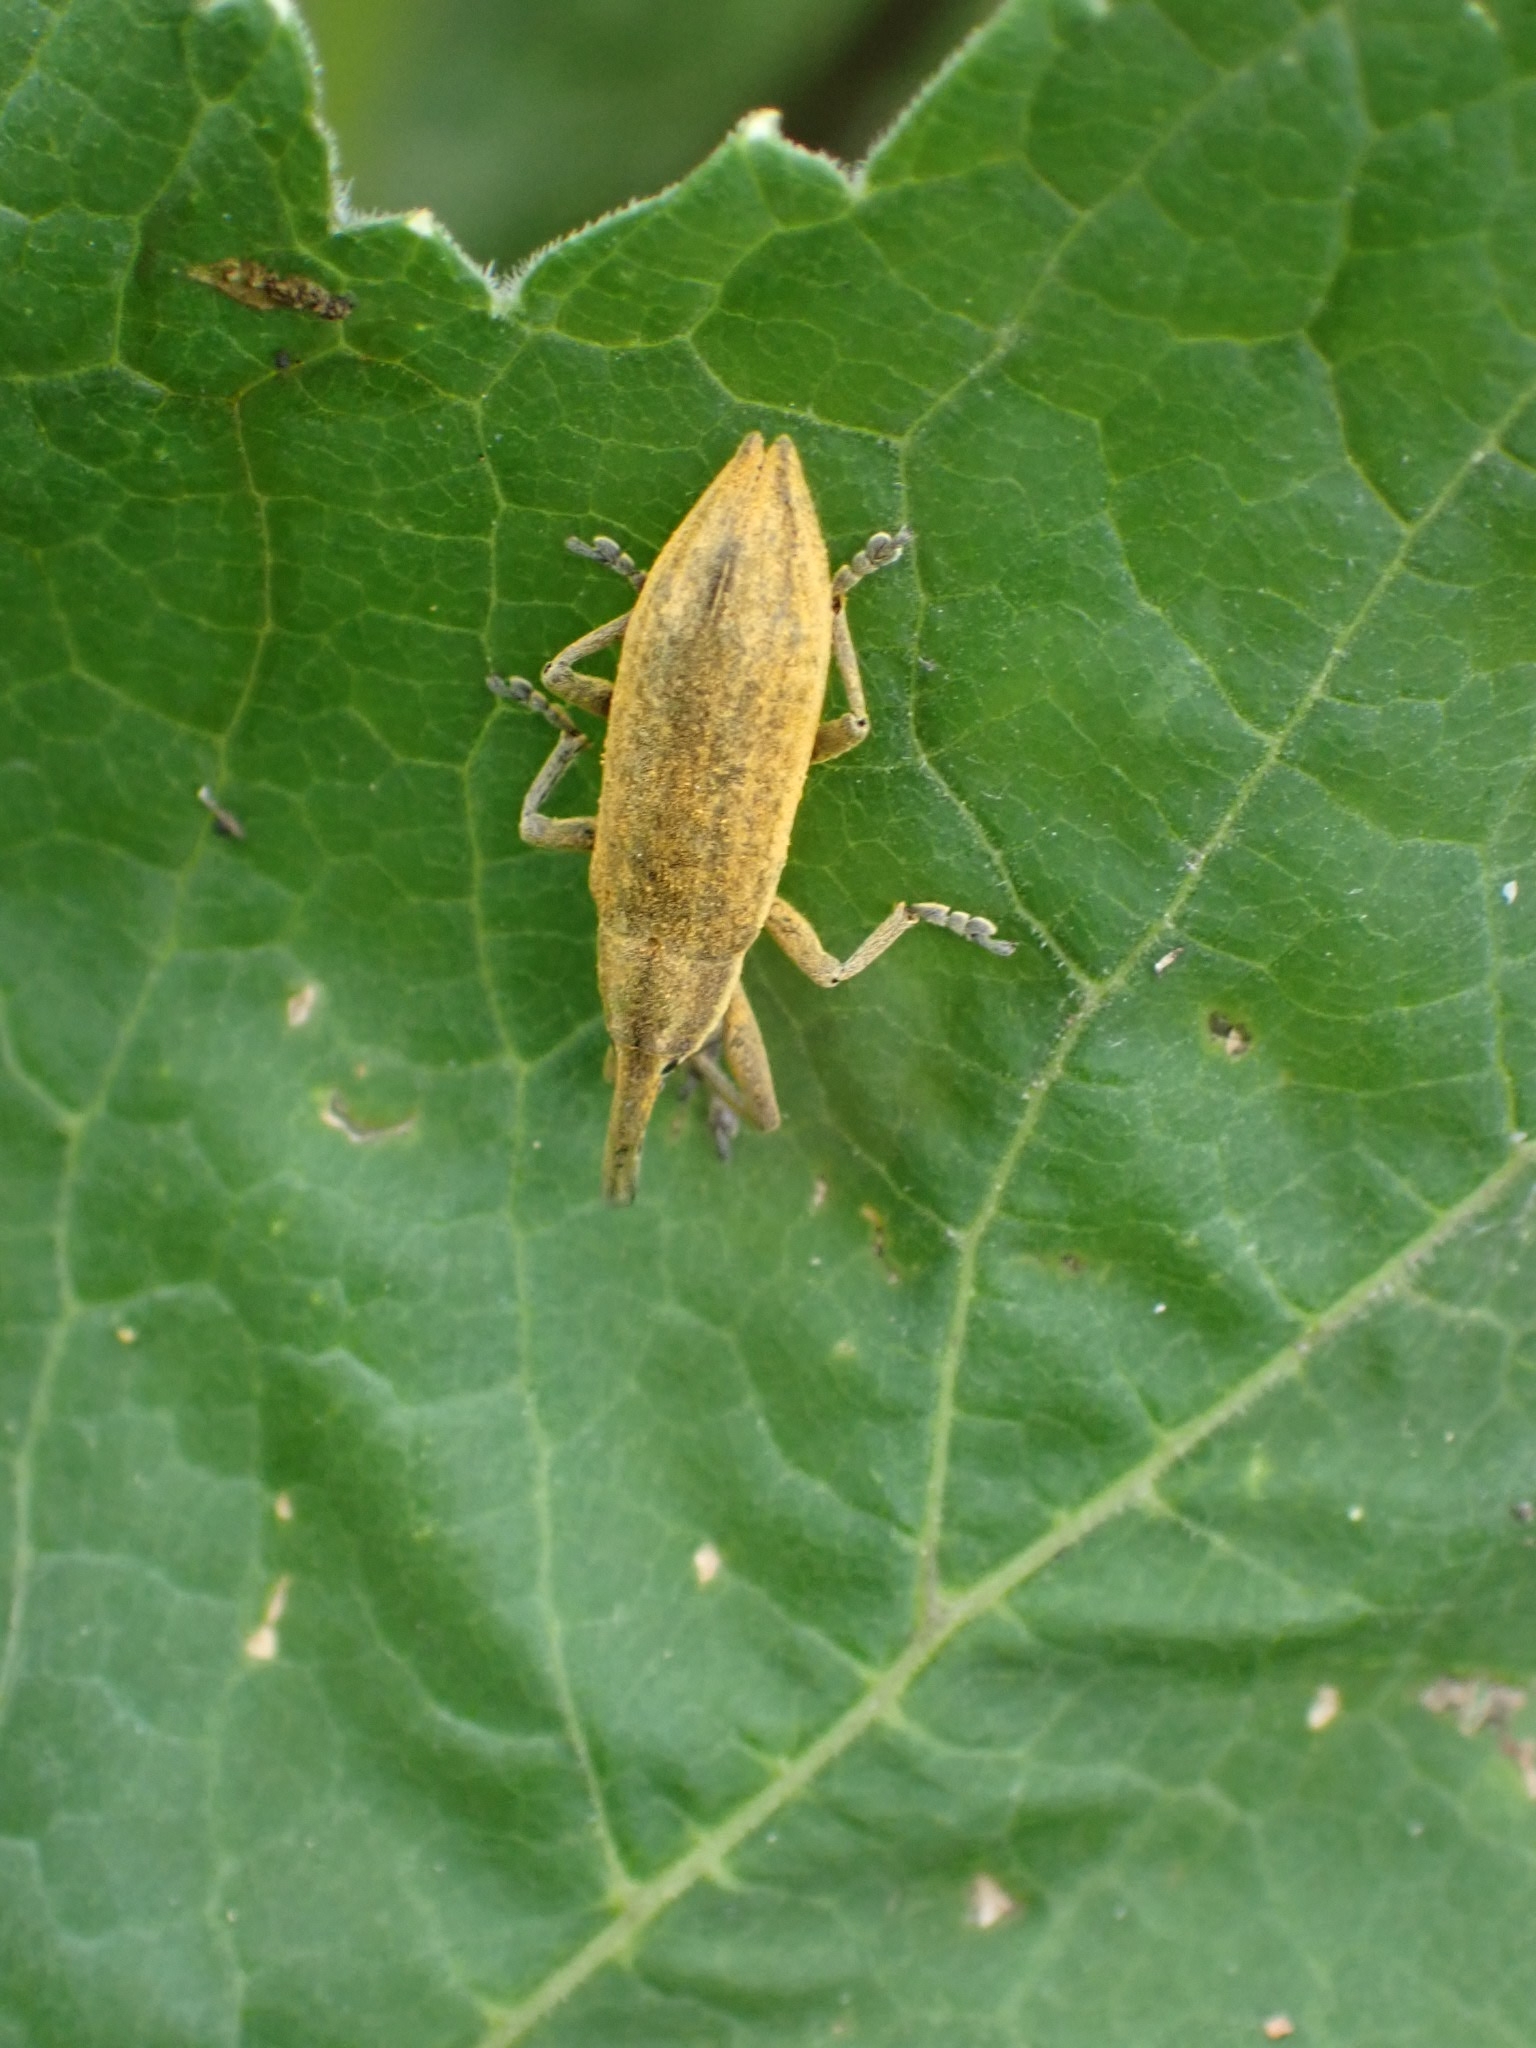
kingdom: Animalia
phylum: Arthropoda
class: Insecta
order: Coleoptera
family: Curculionidae
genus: Lixus
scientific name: Lixus iridis
